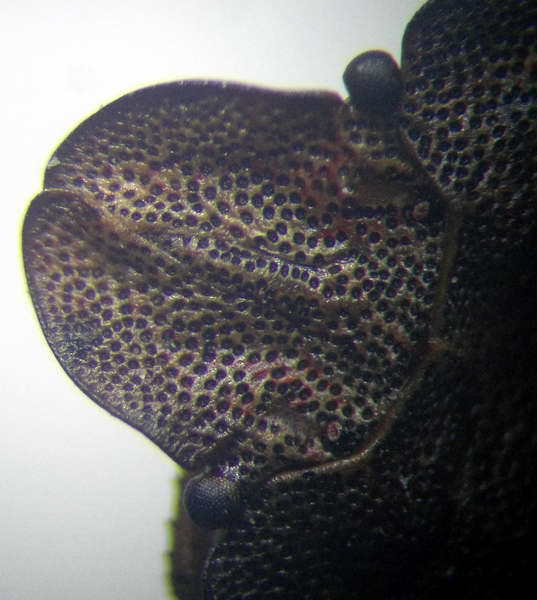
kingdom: Animalia
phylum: Arthropoda
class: Insecta
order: Hemiptera
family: Pentatomidae
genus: Sciocoris
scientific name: Sciocoris homalonotus
